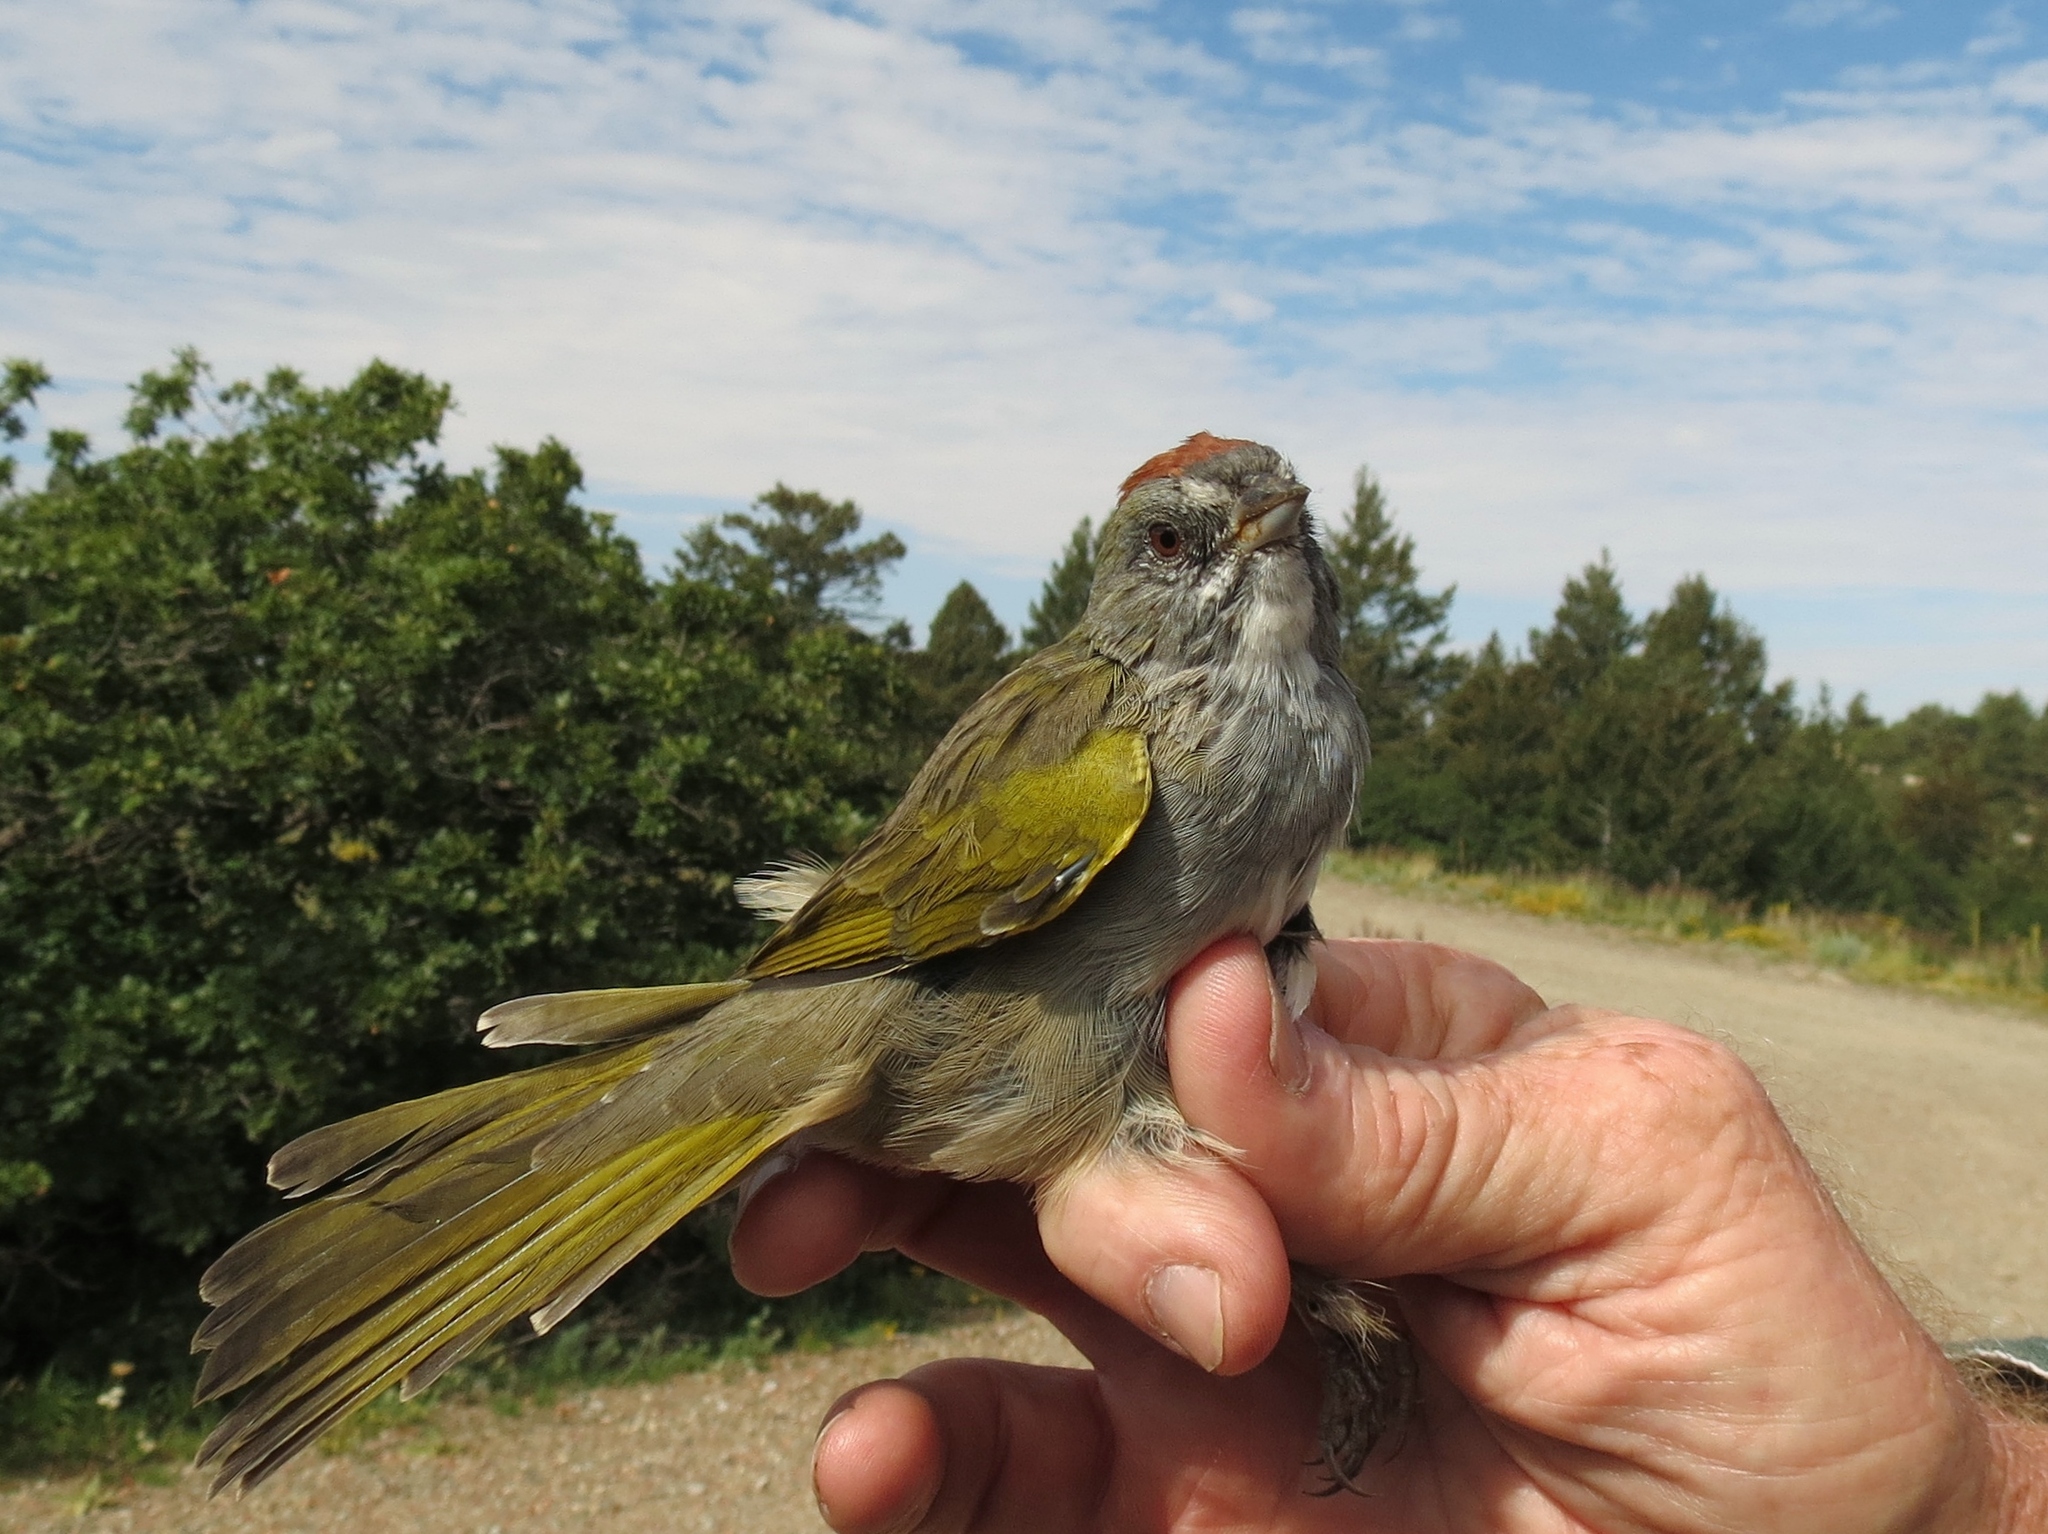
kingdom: Animalia
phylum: Chordata
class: Aves
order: Passeriformes
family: Passerellidae
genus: Pipilo
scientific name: Pipilo chlorurus
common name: Green-tailed towhee
